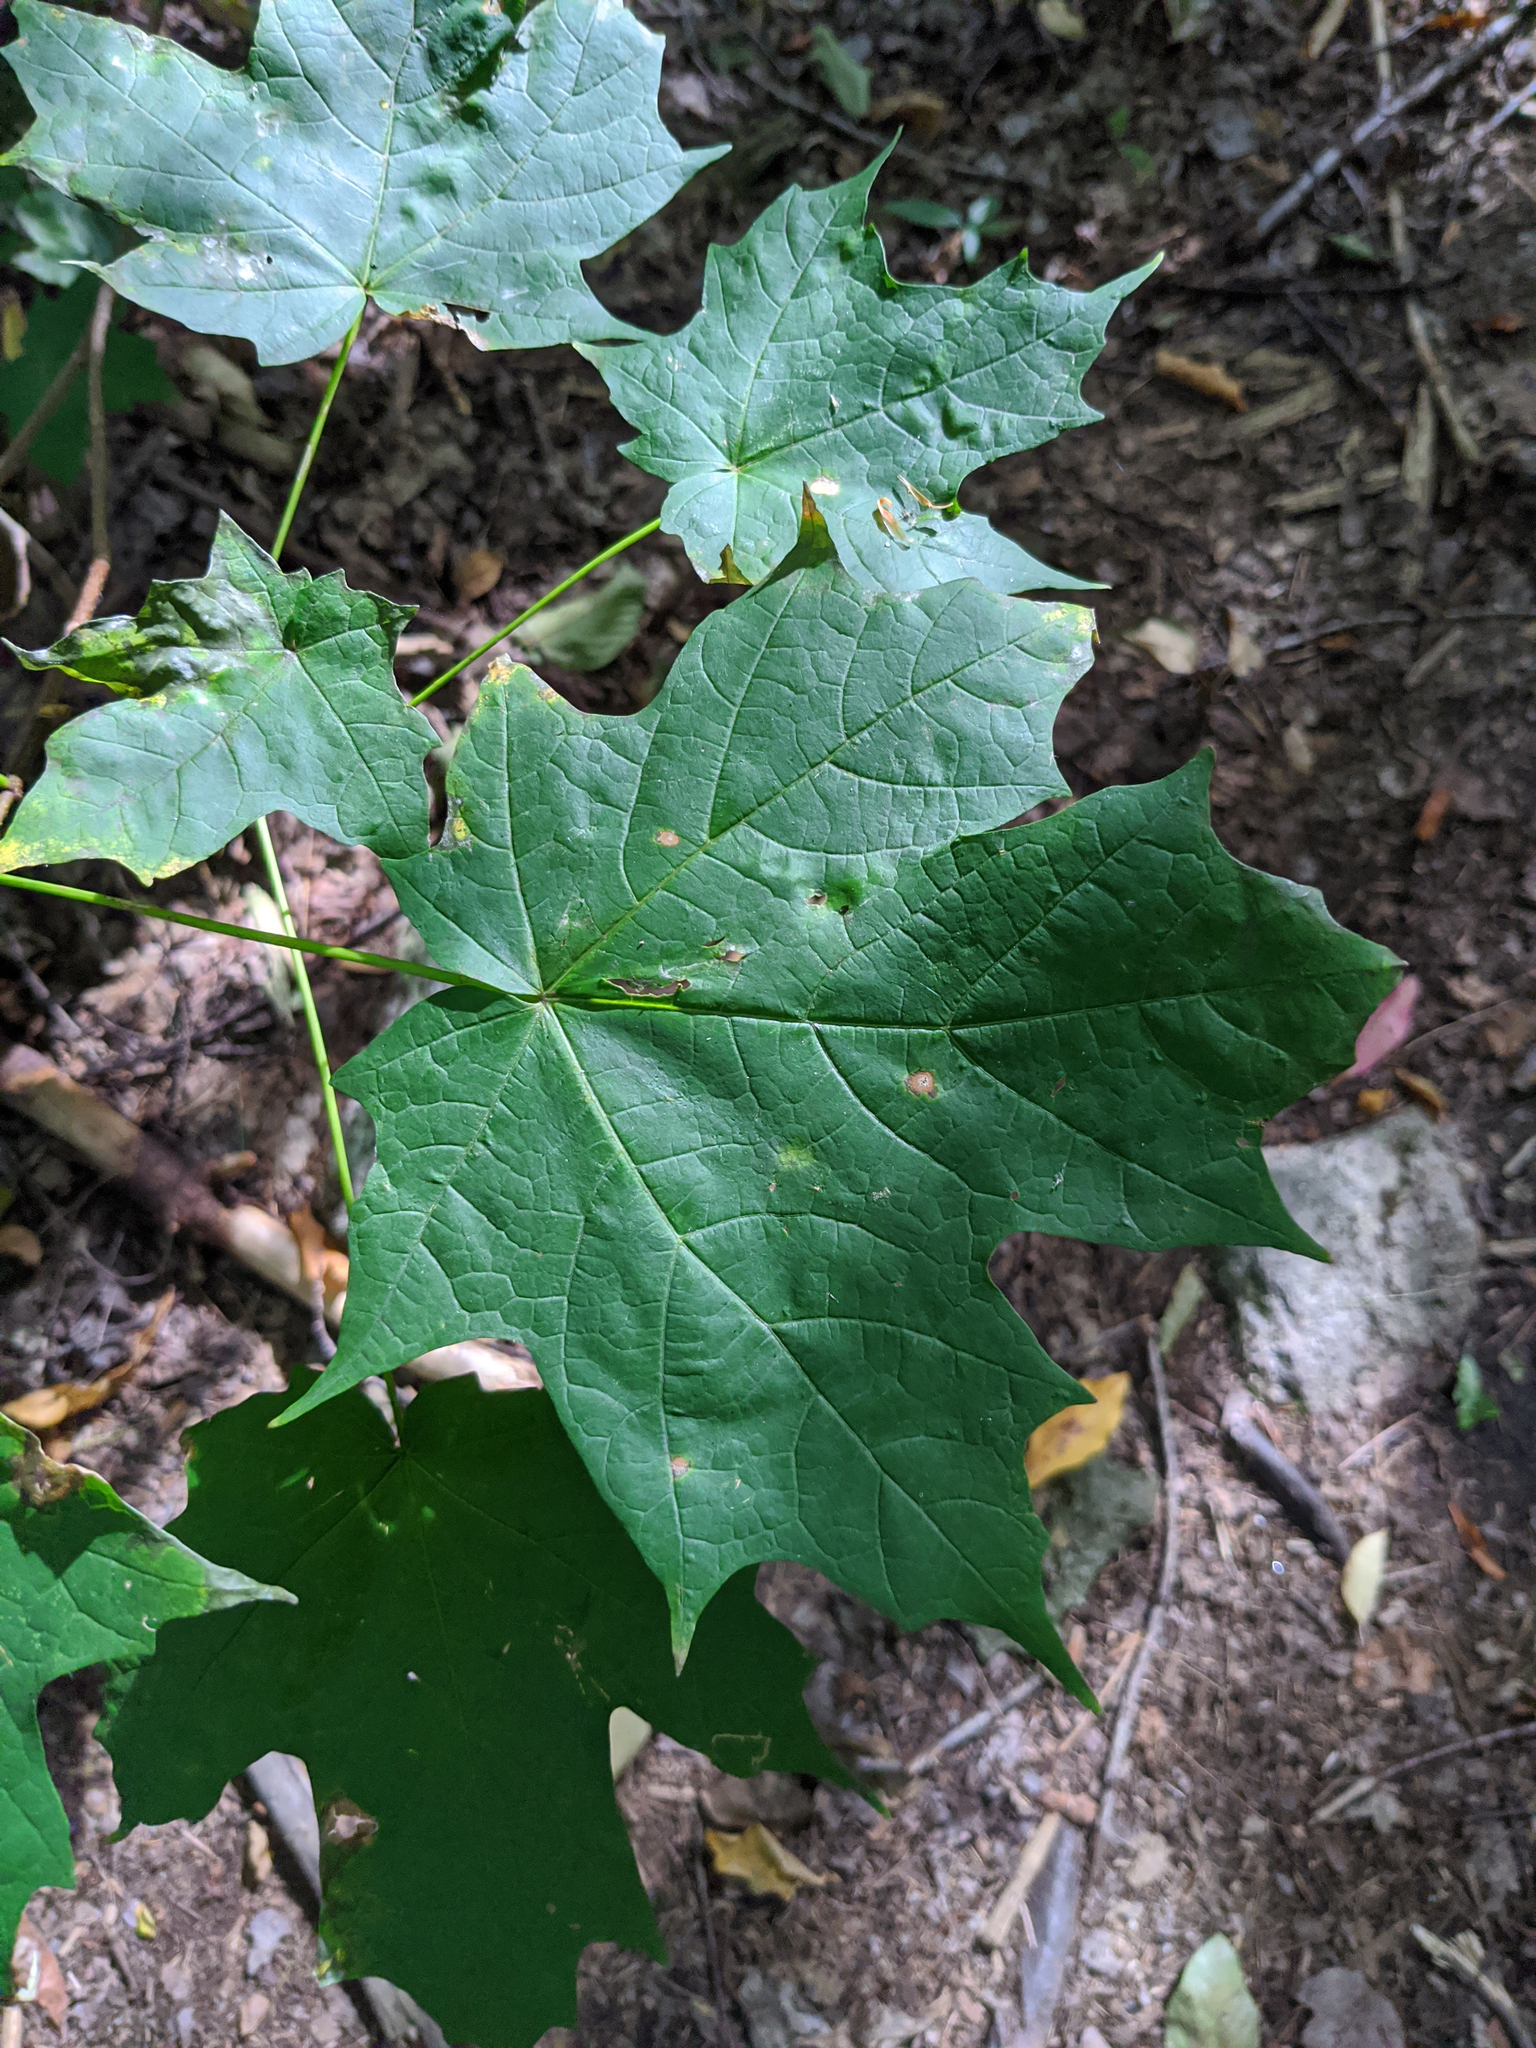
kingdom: Plantae
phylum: Tracheophyta
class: Magnoliopsida
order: Sapindales
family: Sapindaceae
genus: Acer
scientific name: Acer saccharum
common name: Sugar maple
